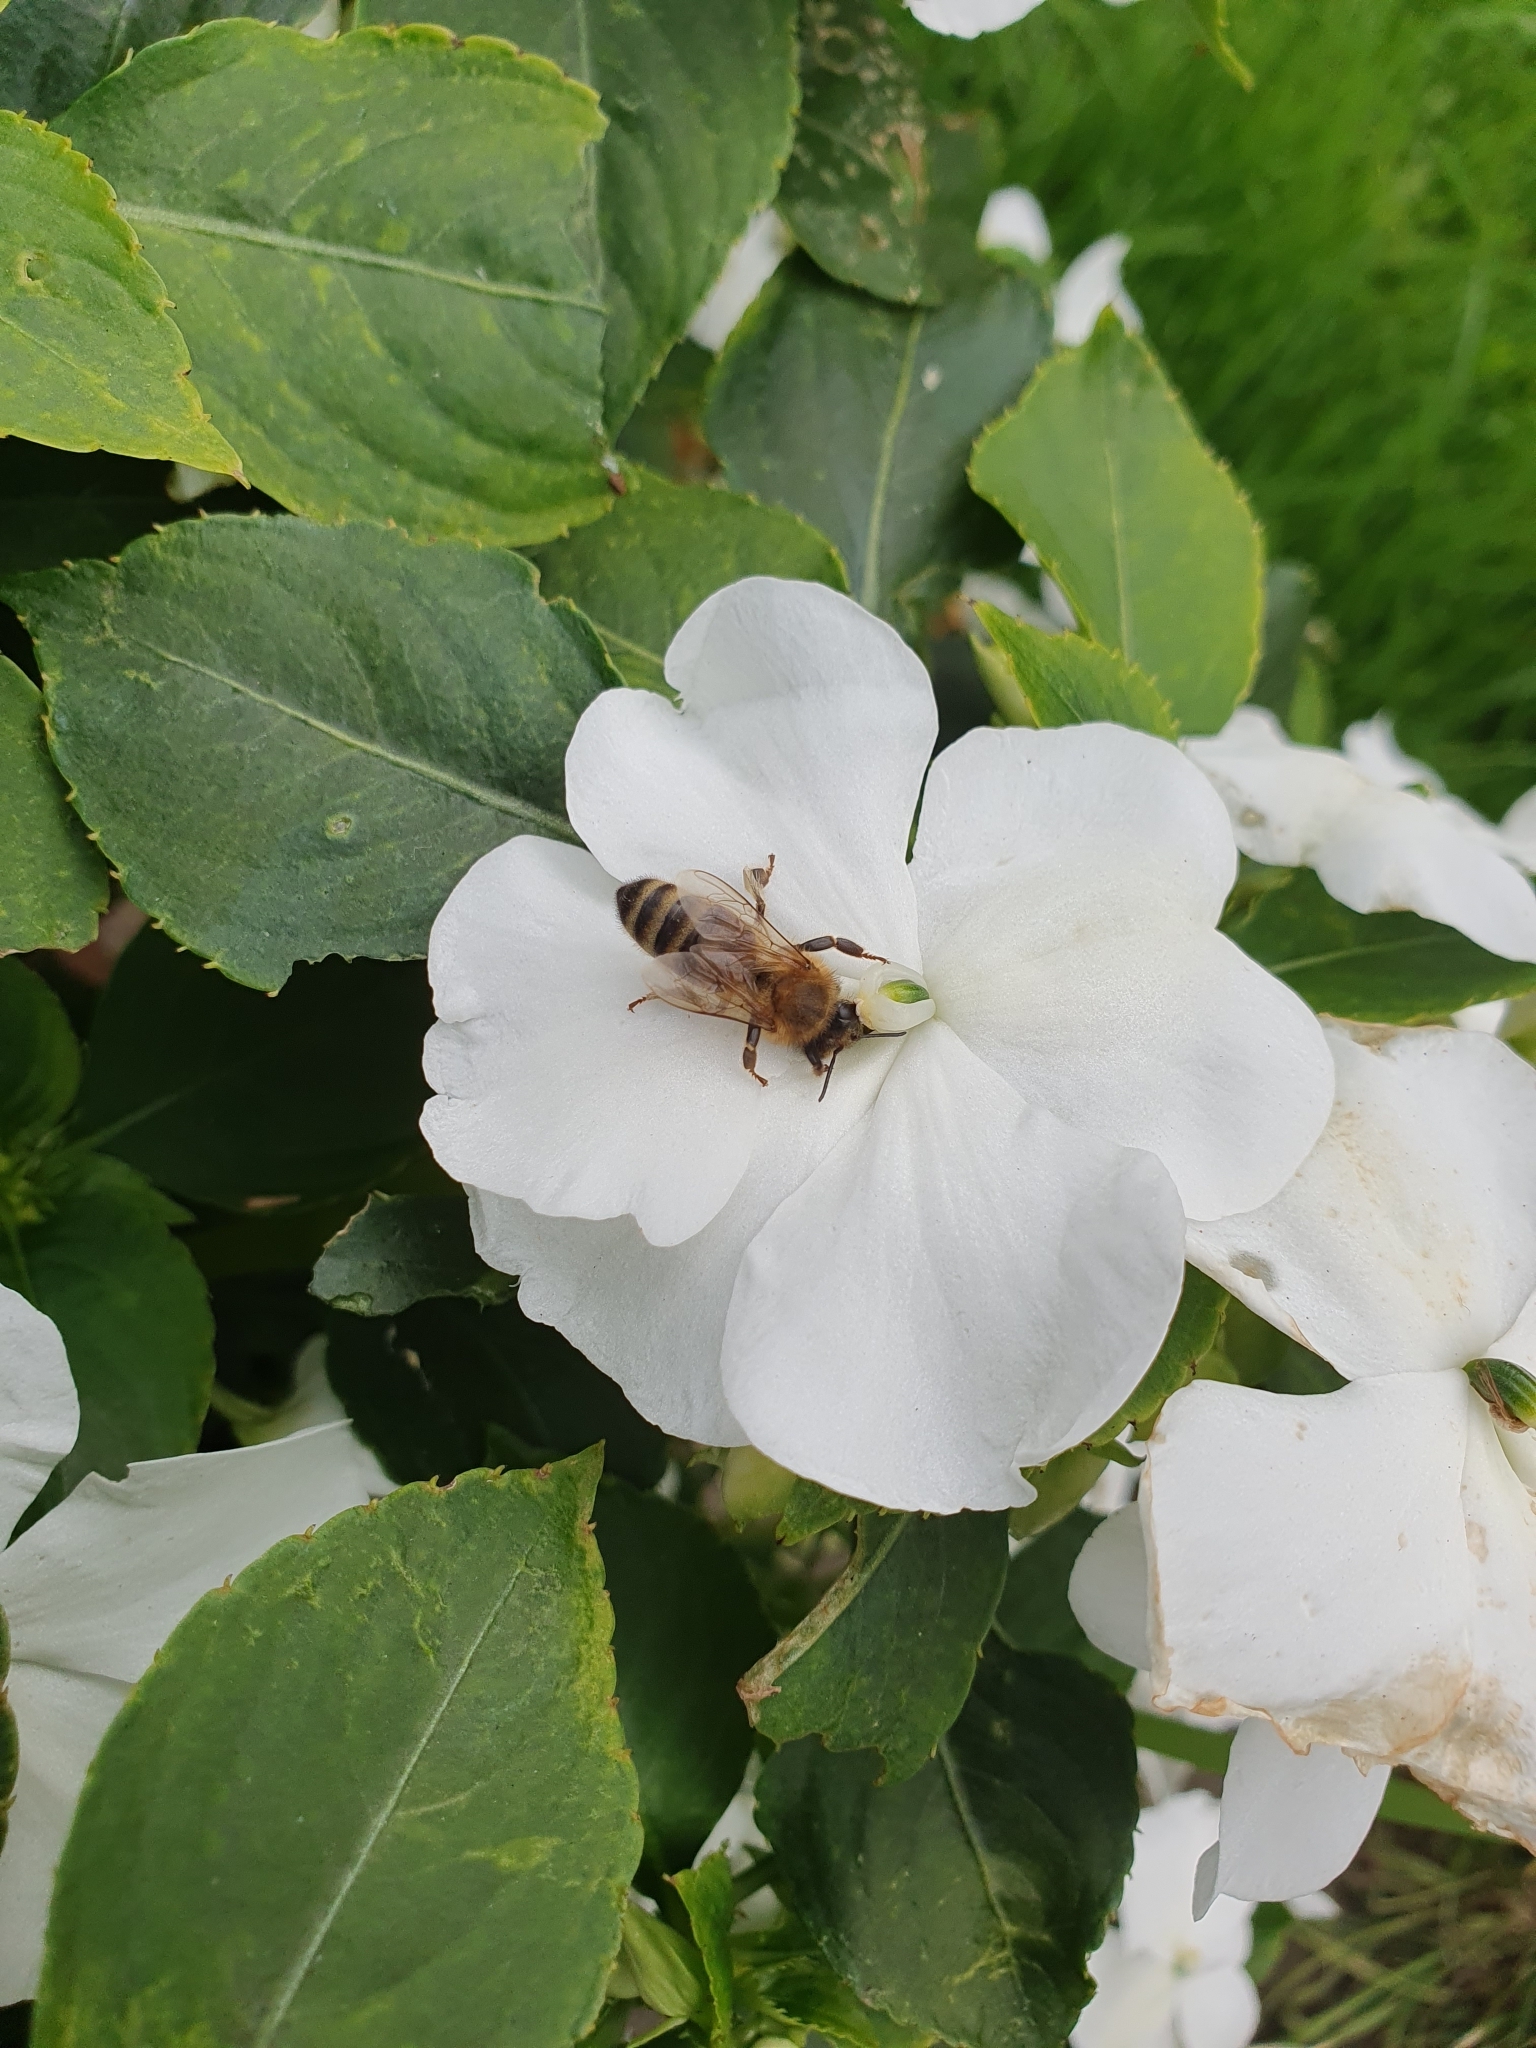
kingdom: Animalia
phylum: Arthropoda
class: Insecta
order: Hymenoptera
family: Apidae
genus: Apis
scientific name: Apis mellifera
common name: Honey bee
